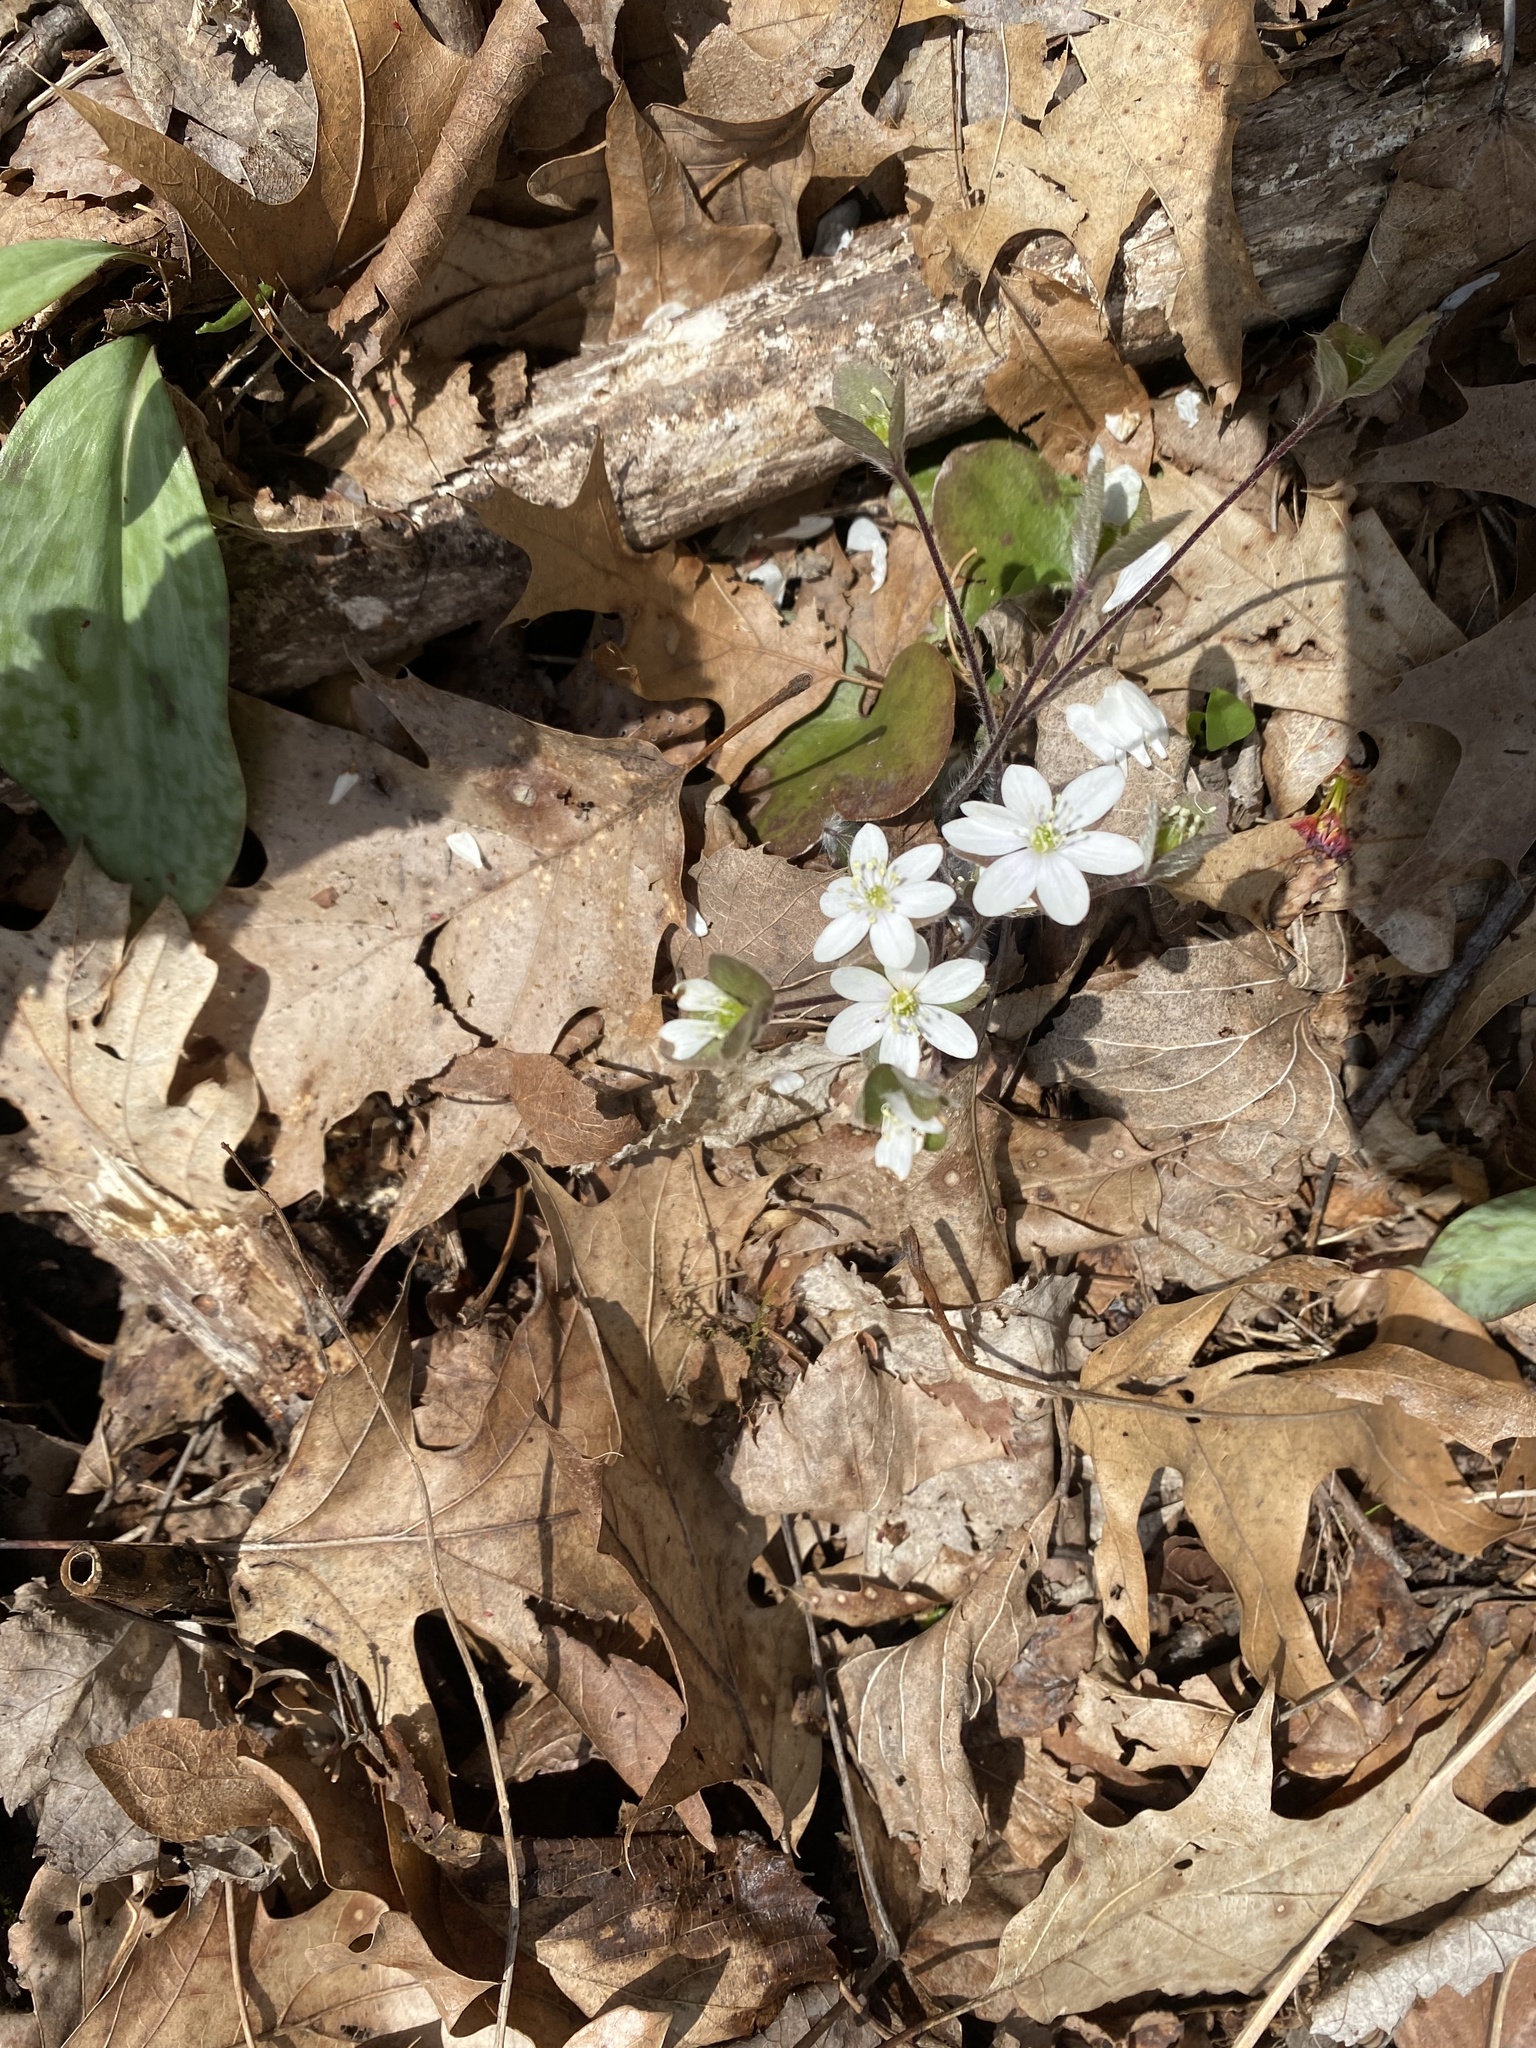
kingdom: Plantae
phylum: Tracheophyta
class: Magnoliopsida
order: Ranunculales
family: Ranunculaceae
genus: Hepatica
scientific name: Hepatica americana
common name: American hepatica
